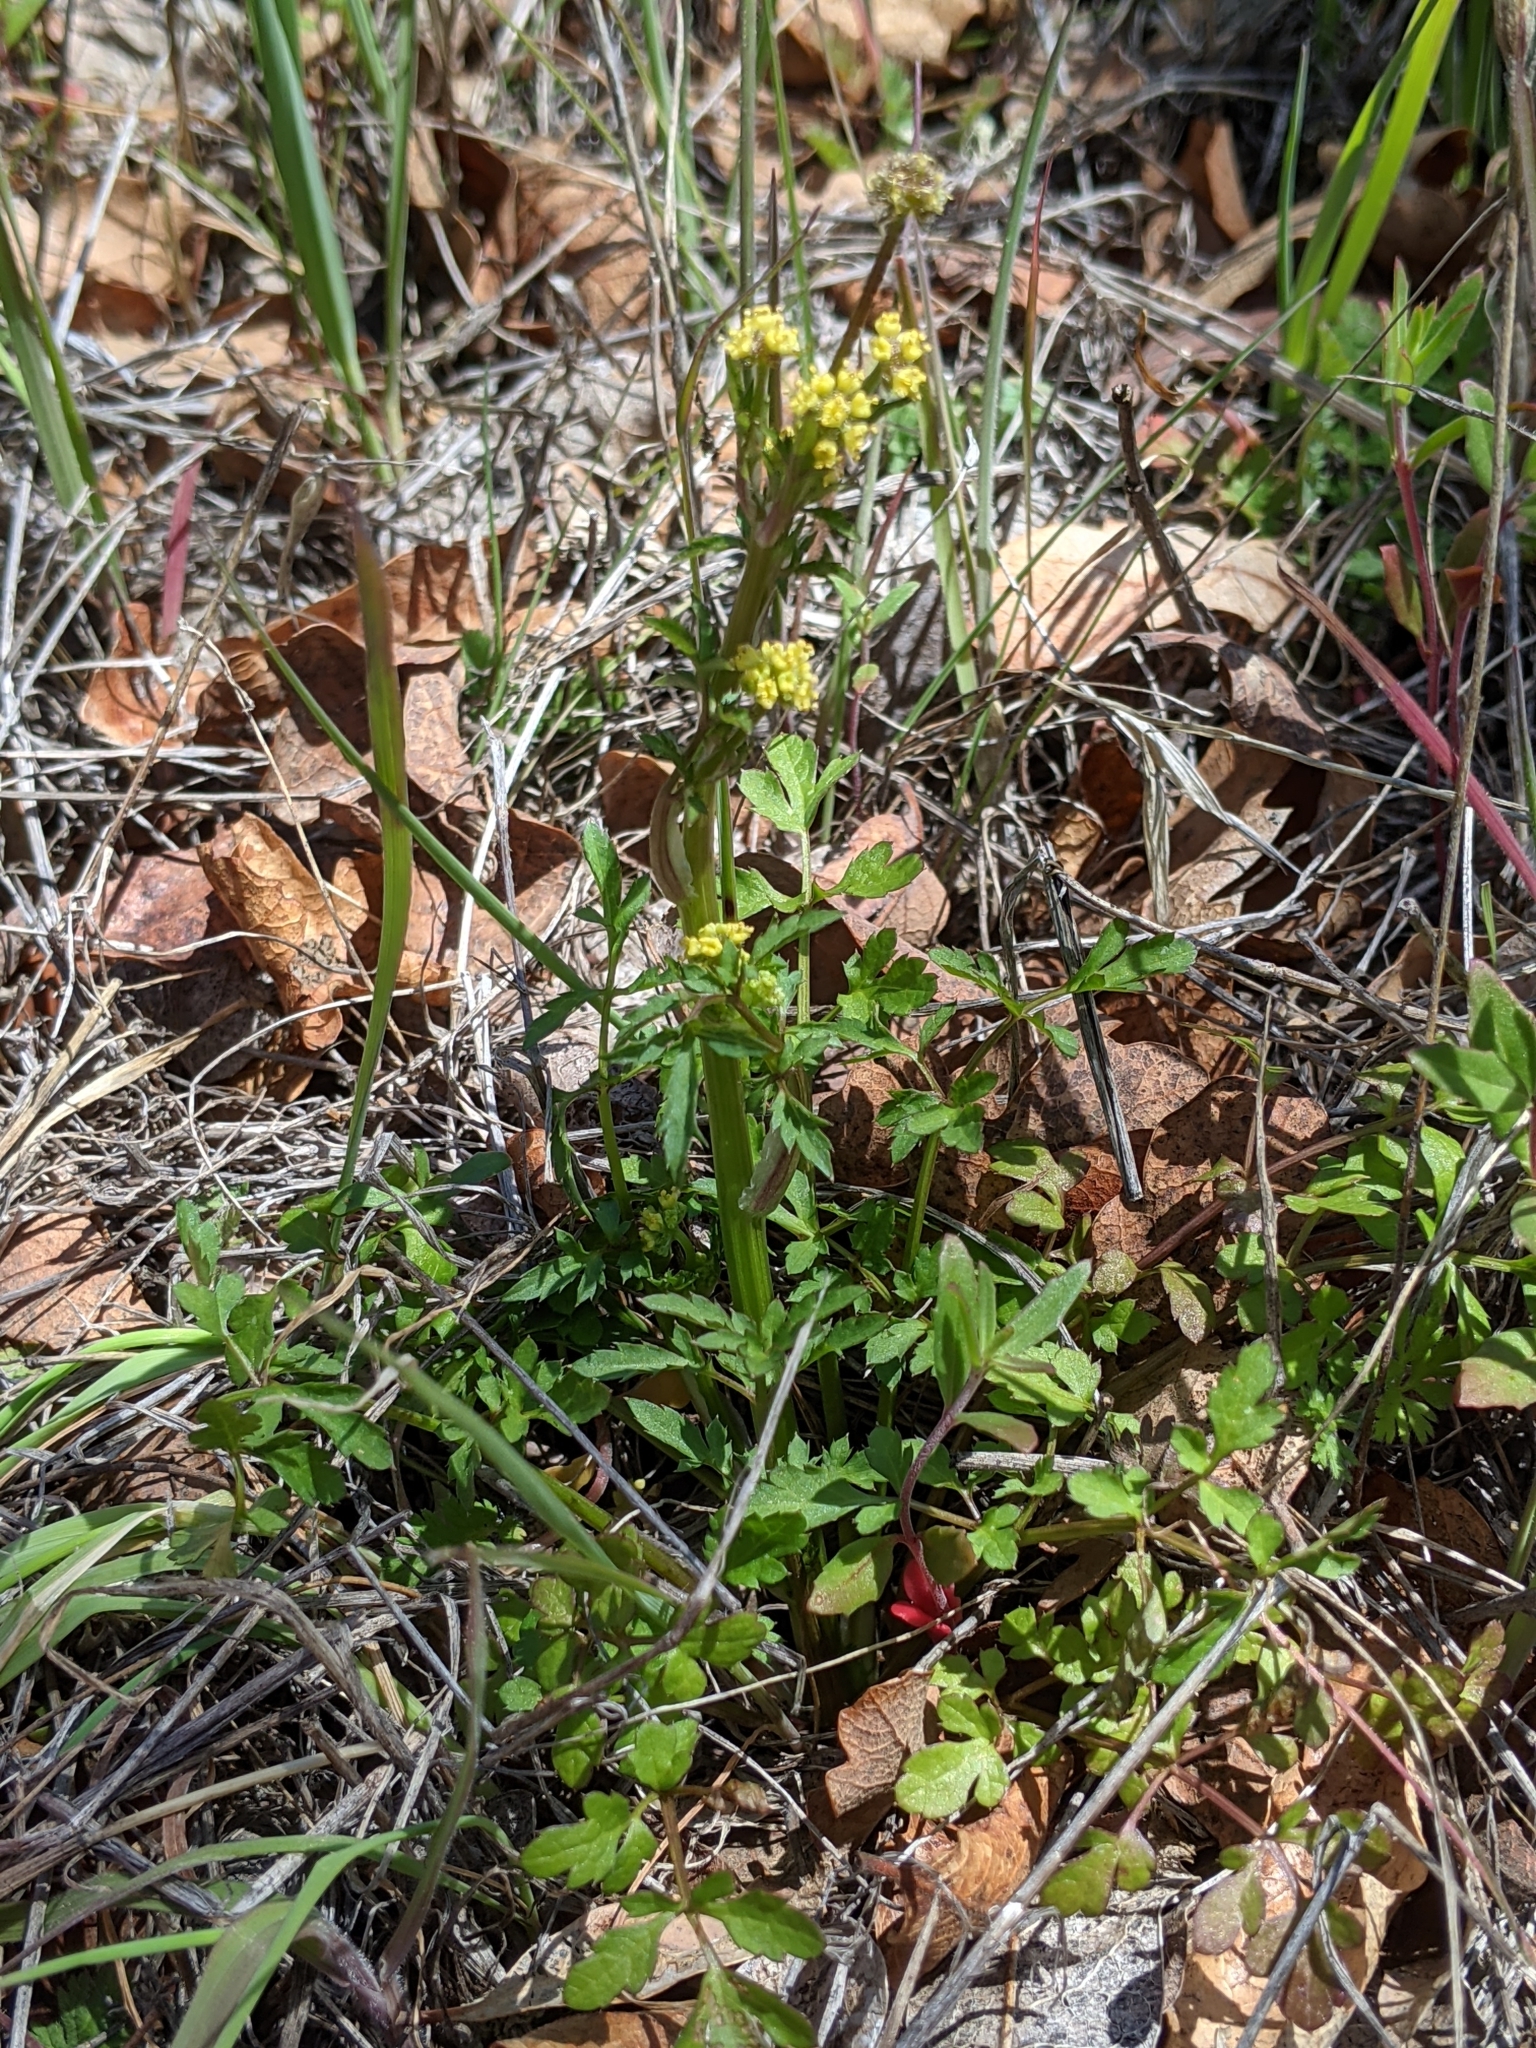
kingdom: Plantae
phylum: Tracheophyta
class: Magnoliopsida
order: Apiales
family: Apiaceae
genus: Sanicula
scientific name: Sanicula bipinnata
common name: Poison sanicle
